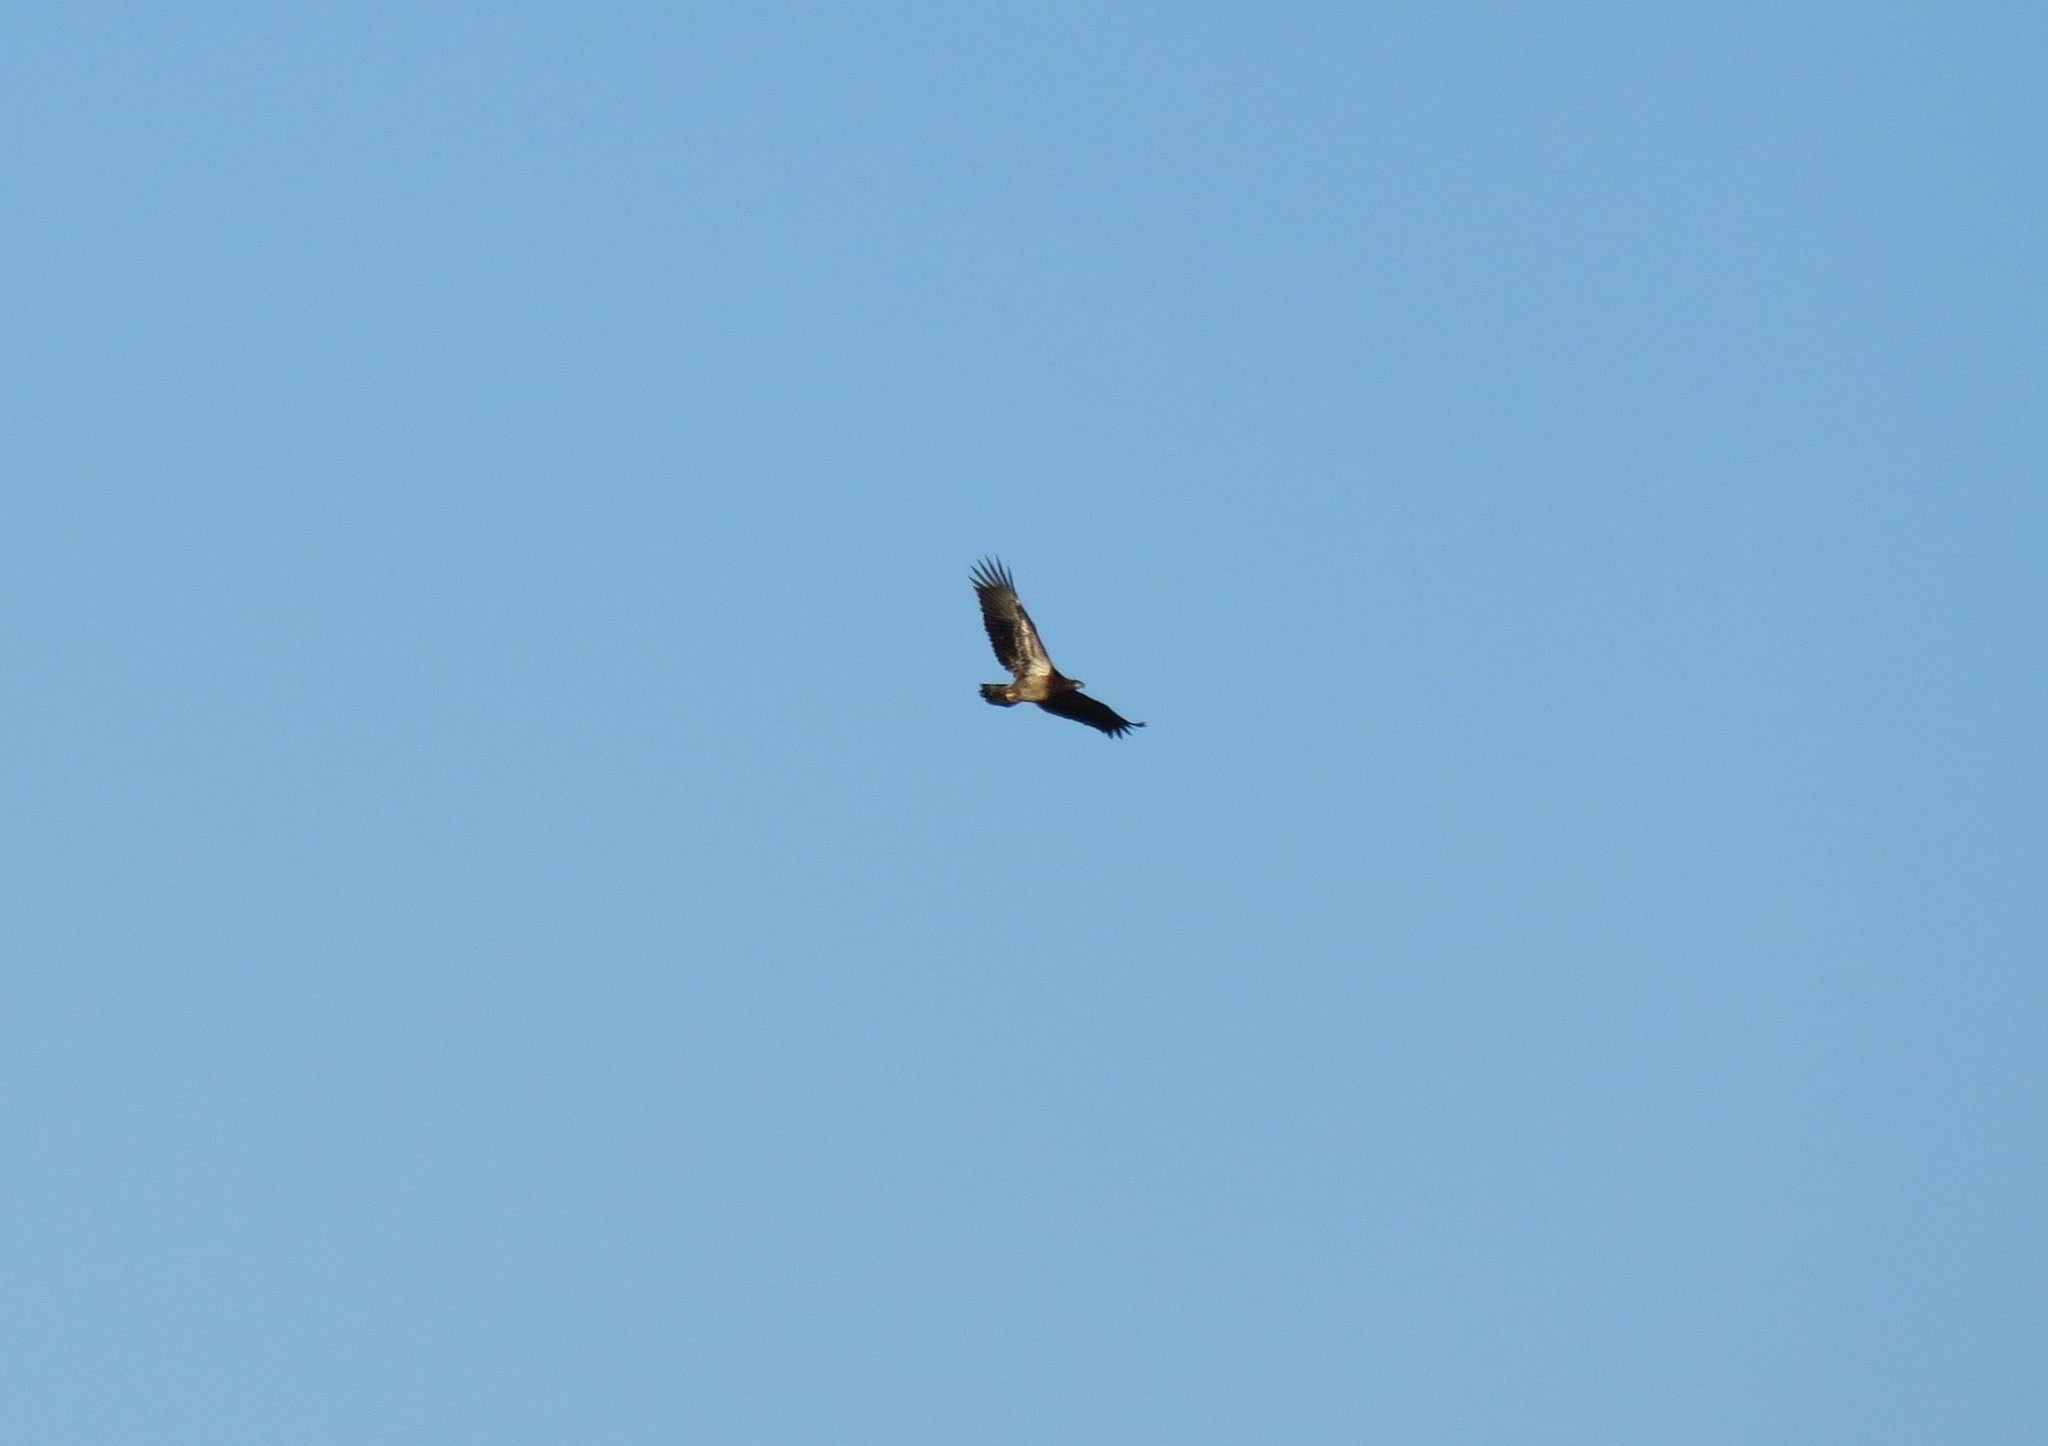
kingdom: Animalia
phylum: Chordata
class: Aves
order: Accipitriformes
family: Accipitridae
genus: Haliaeetus
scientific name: Haliaeetus leucocephalus
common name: Bald eagle
